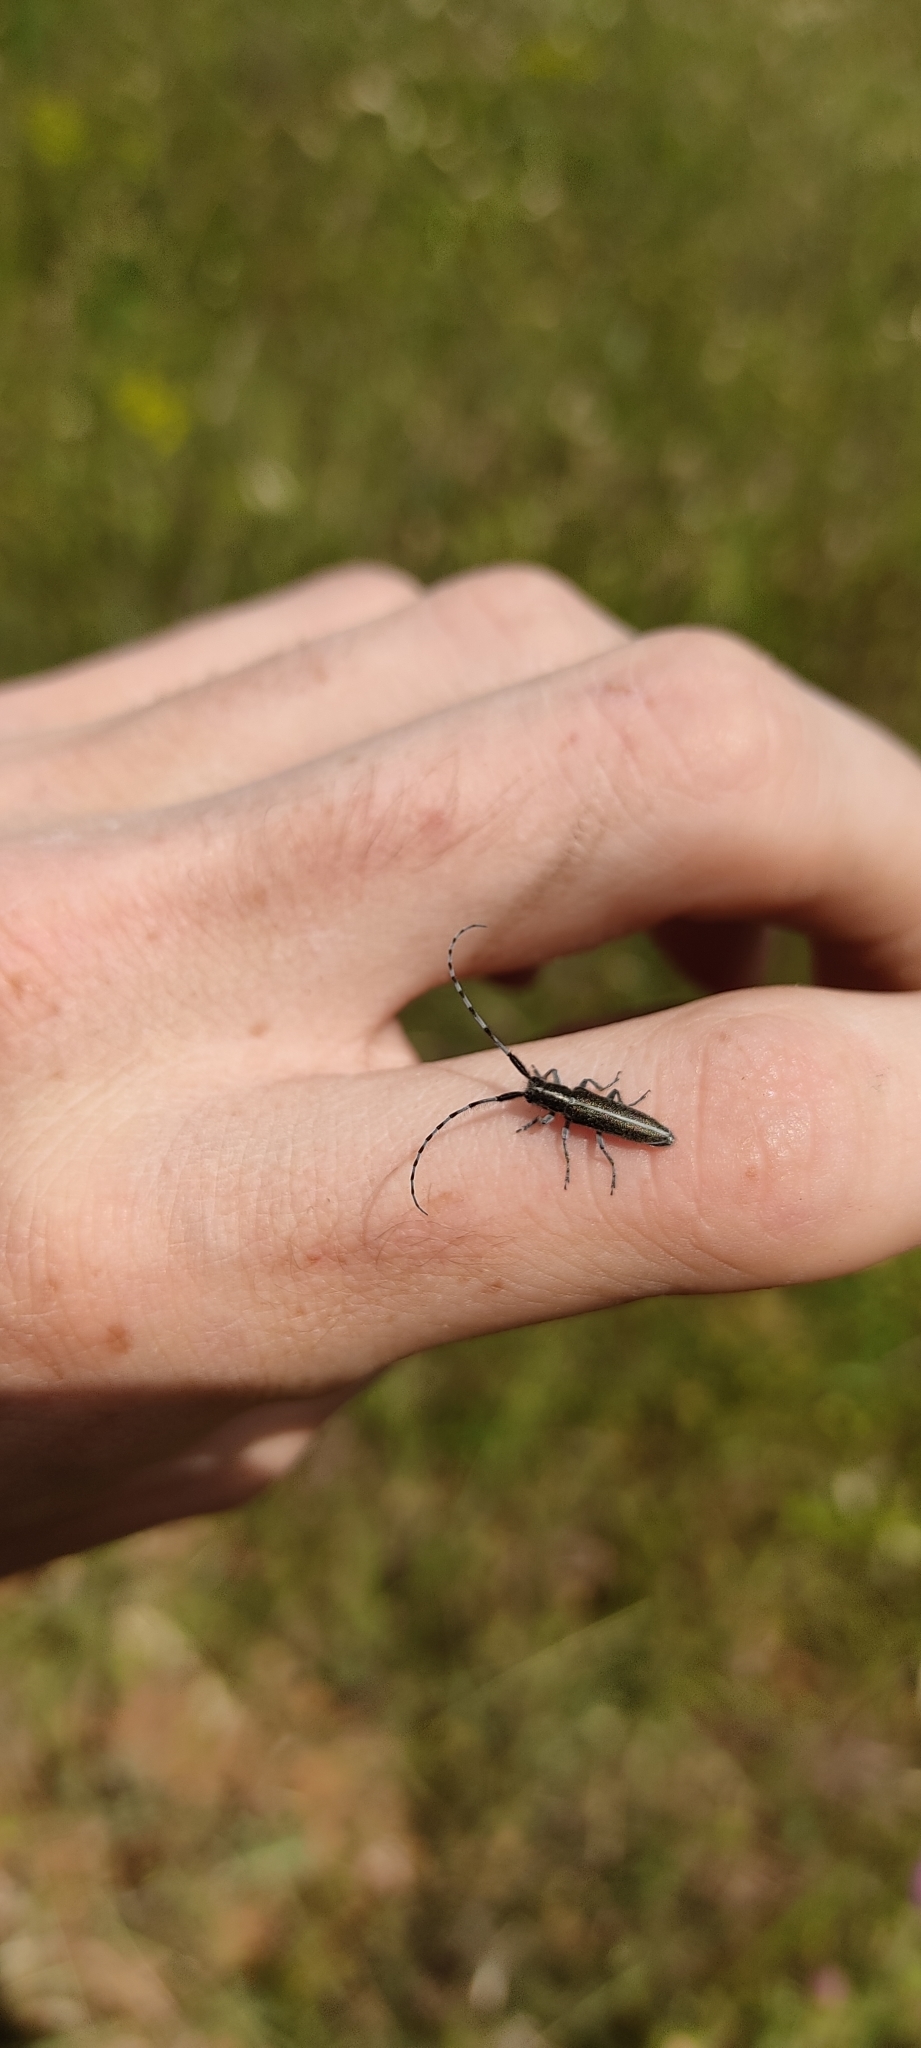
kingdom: Animalia
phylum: Arthropoda
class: Insecta
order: Coleoptera
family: Cerambycidae
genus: Agapanthia
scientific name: Agapanthia suturalis
